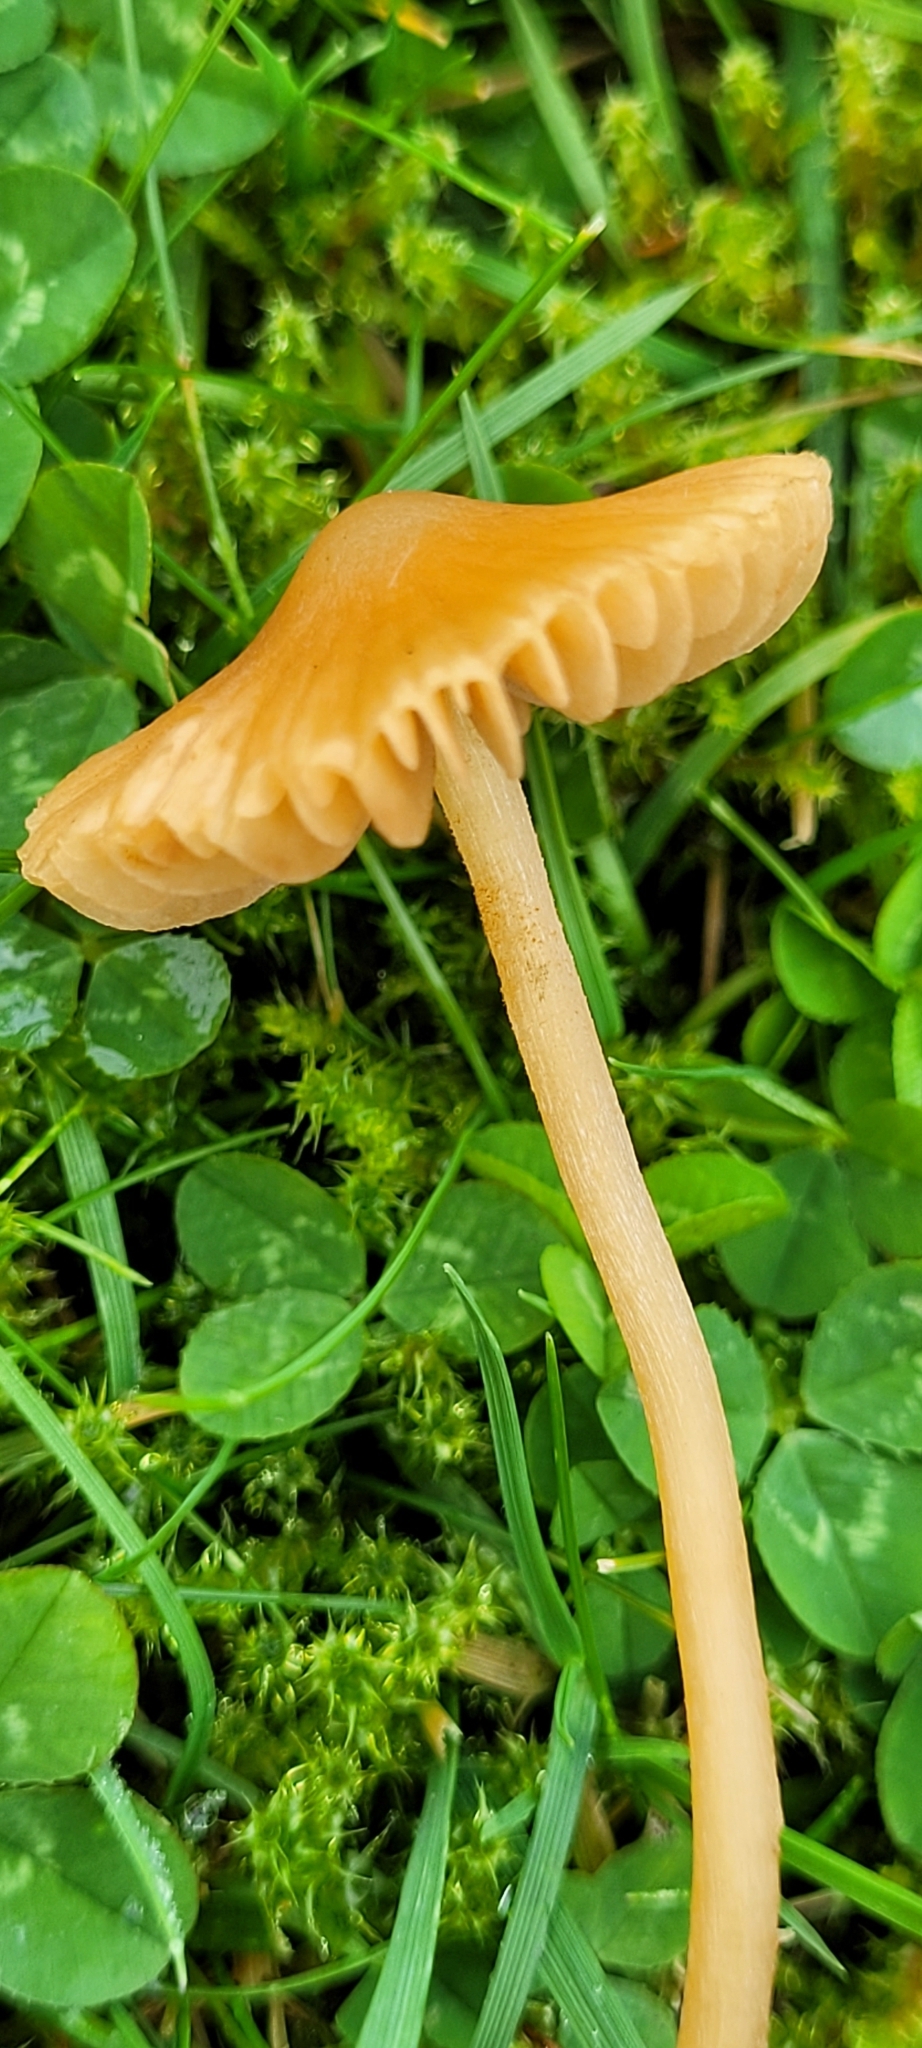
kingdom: Fungi
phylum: Basidiomycota
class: Agaricomycetes
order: Agaricales
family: Hymenogastraceae
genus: Galerina
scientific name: Galerina clavata
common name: Ribbed bell
